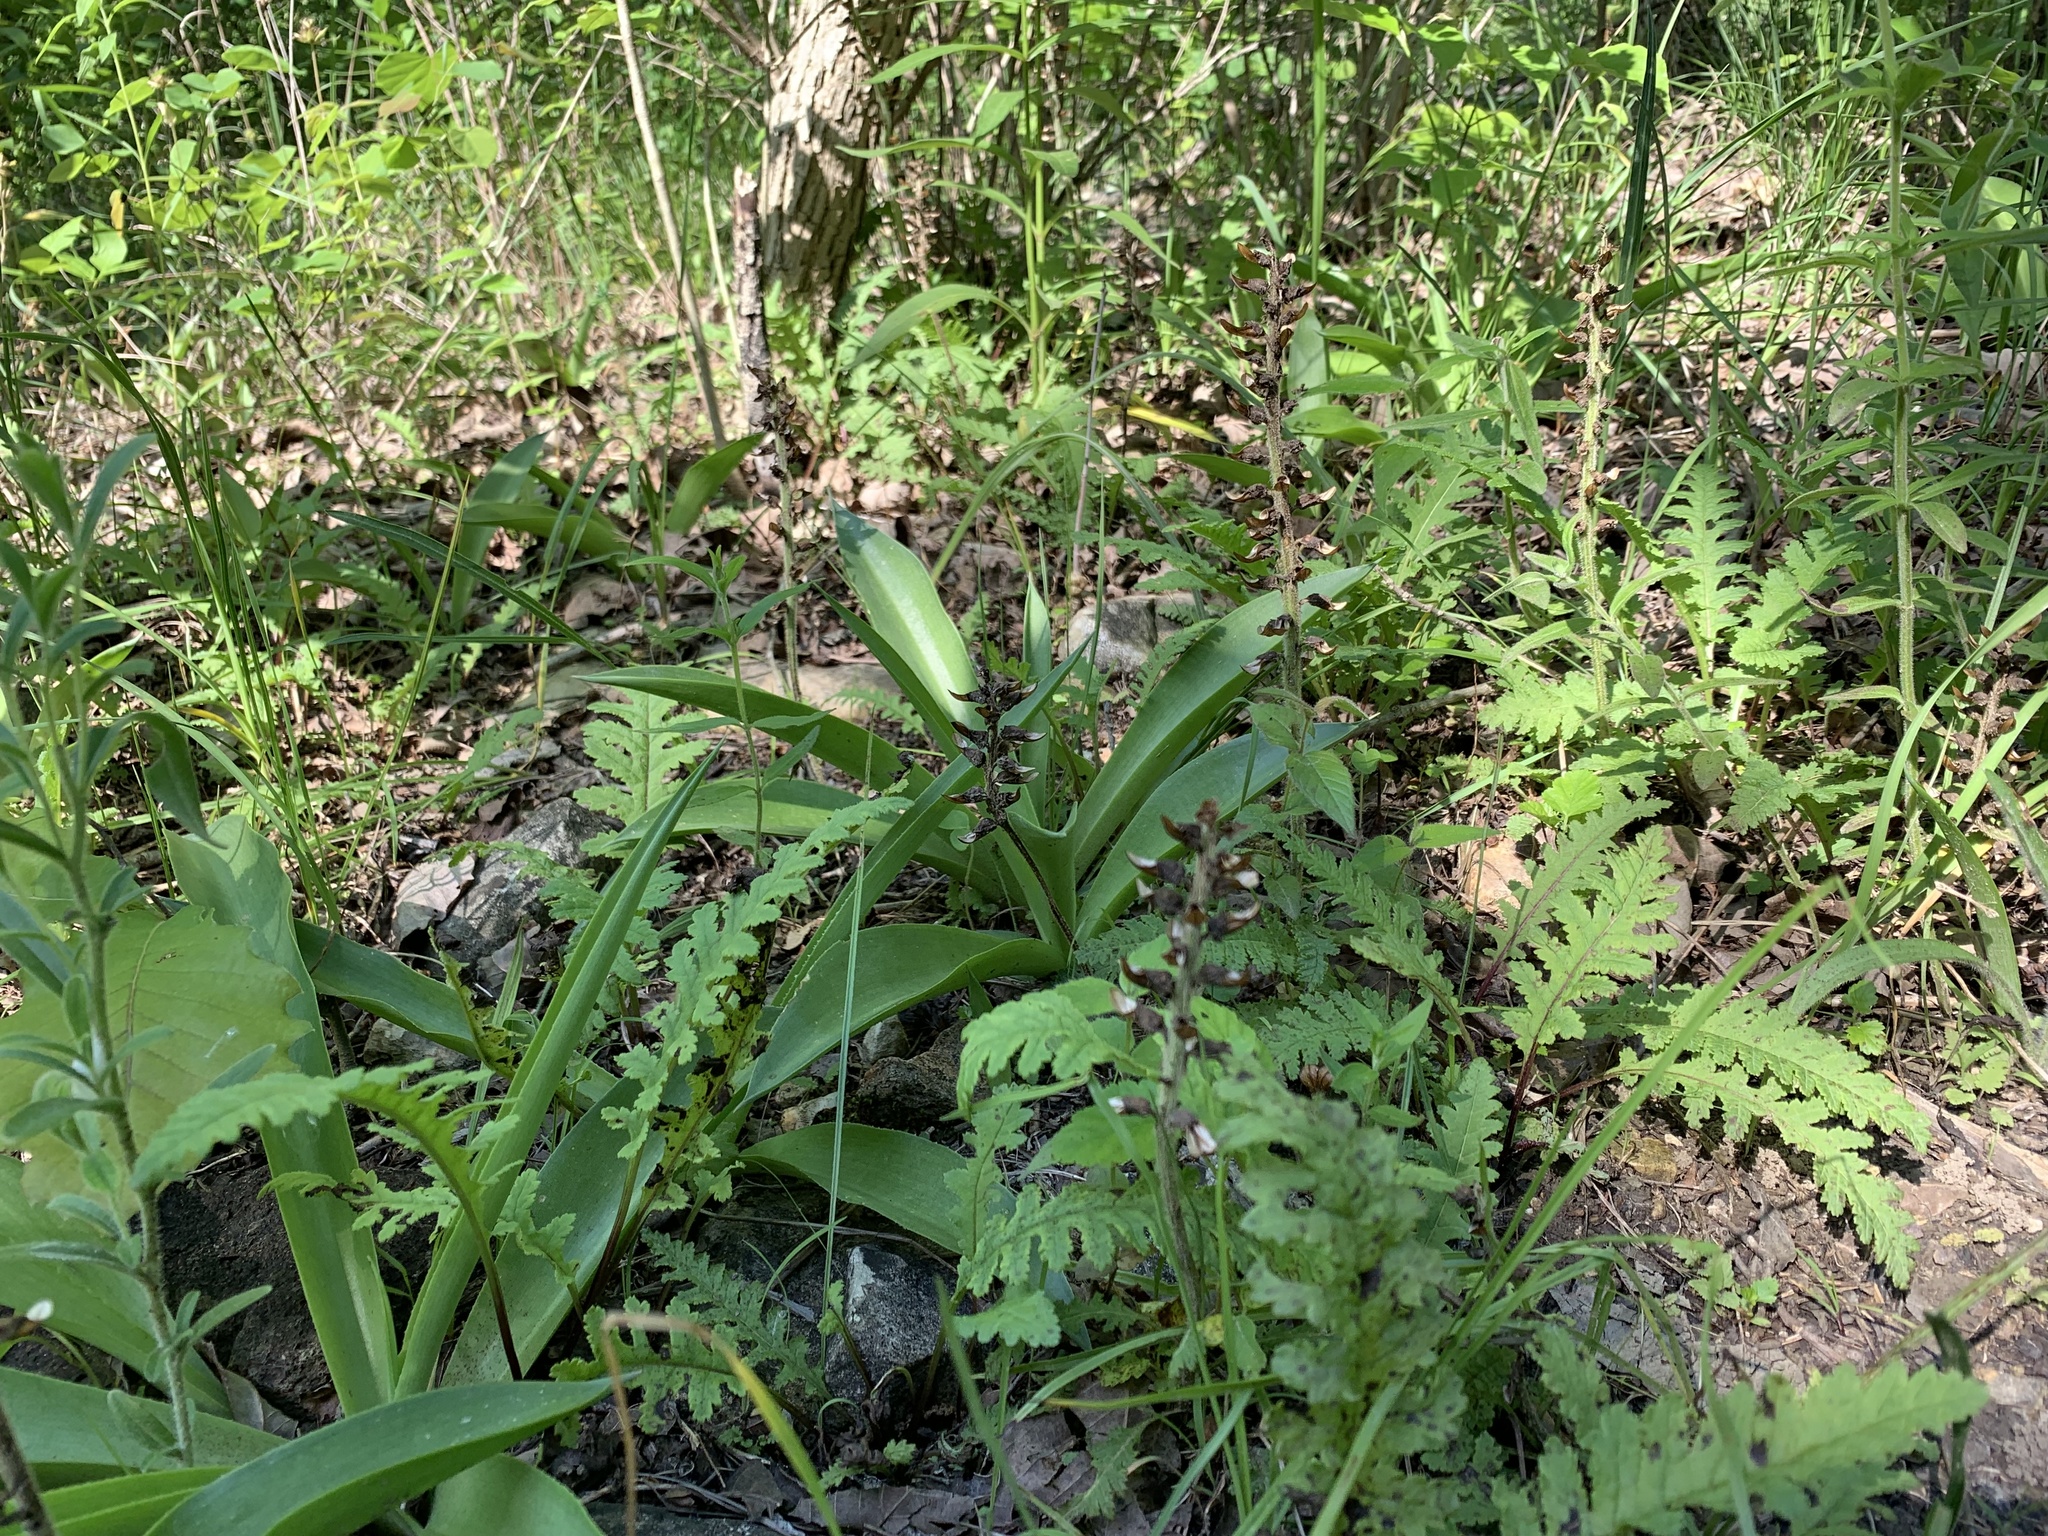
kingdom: Plantae
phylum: Tracheophyta
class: Magnoliopsida
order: Lamiales
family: Orobanchaceae
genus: Pedicularis
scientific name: Pedicularis canadensis
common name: Early lousewort
